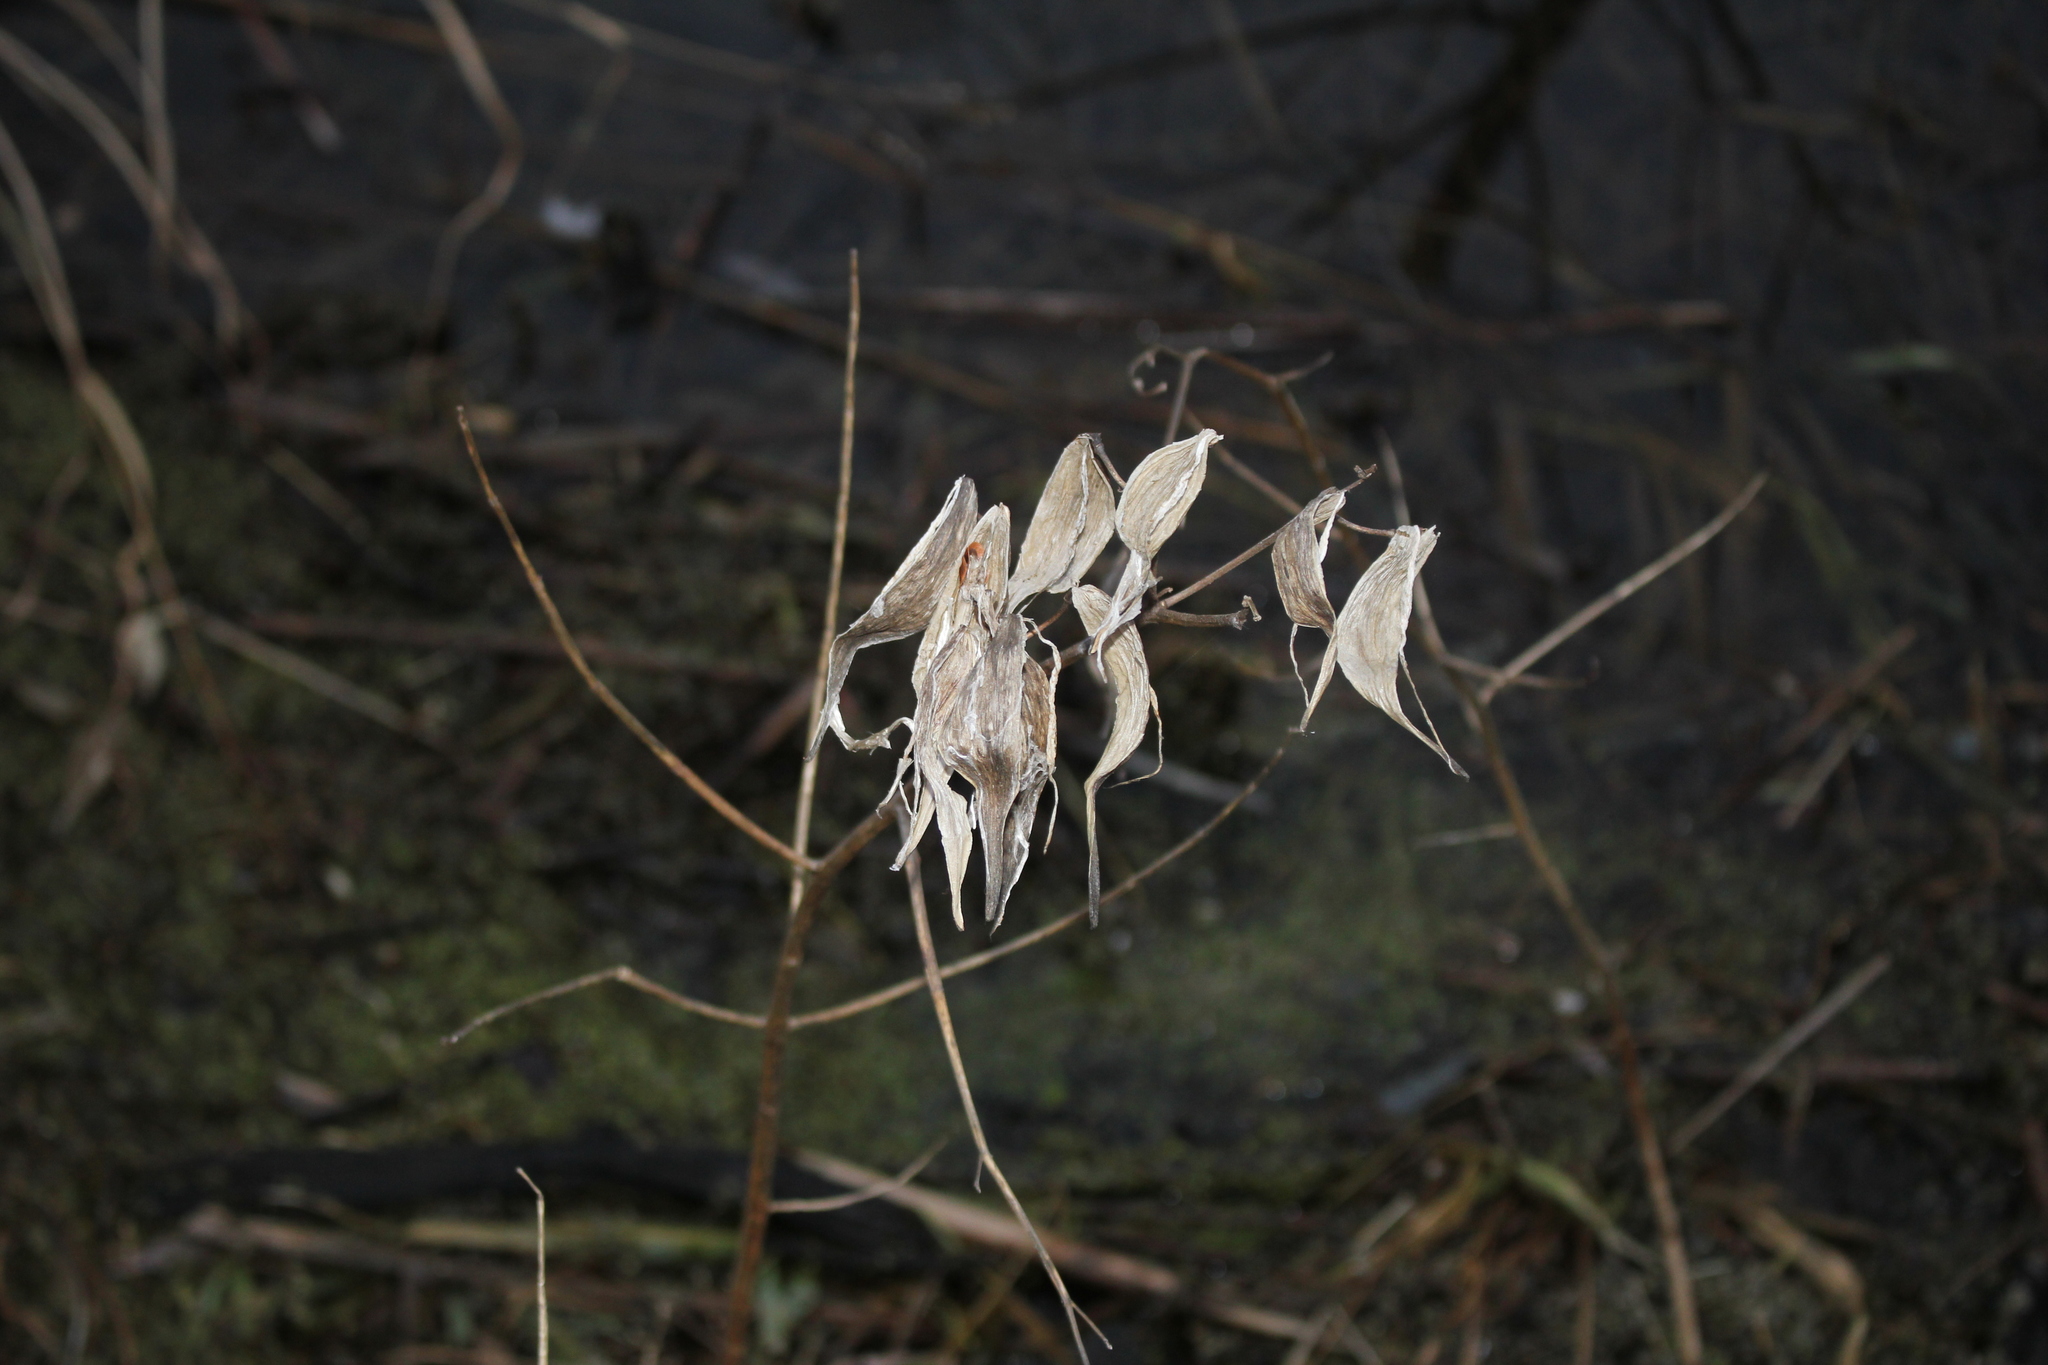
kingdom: Plantae
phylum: Tracheophyta
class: Magnoliopsida
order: Gentianales
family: Apocynaceae
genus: Asclepias
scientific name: Asclepias incarnata
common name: Swamp milkweed
